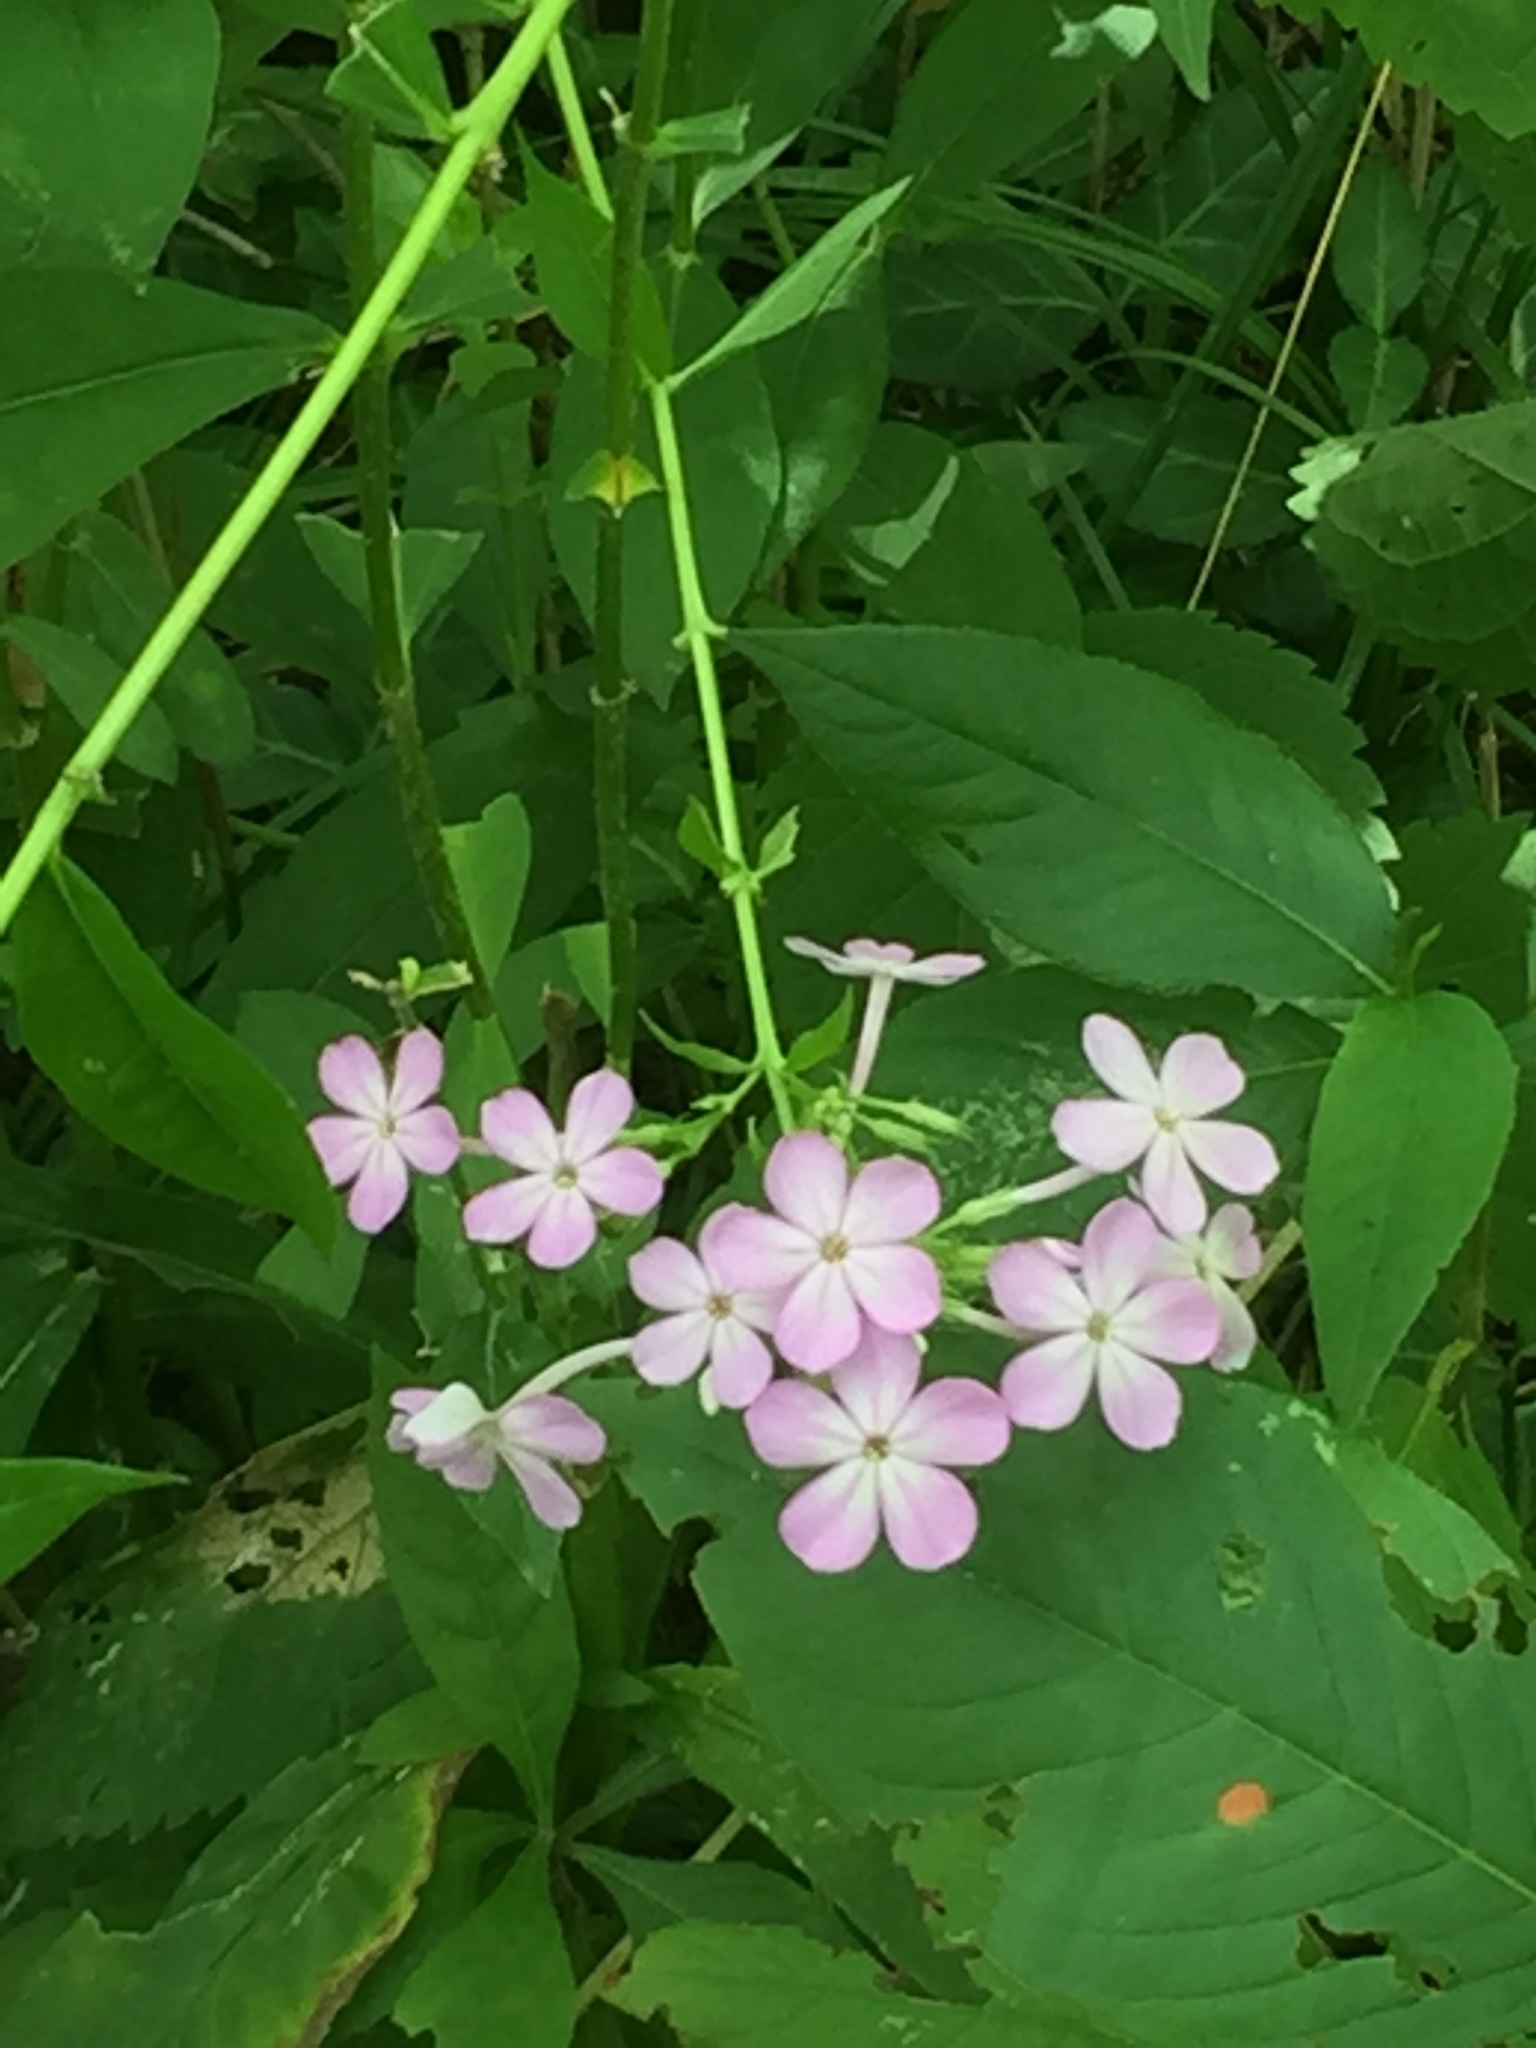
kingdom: Plantae
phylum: Tracheophyta
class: Magnoliopsida
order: Ericales
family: Polemoniaceae
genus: Phlox
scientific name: Phlox paniculata
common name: Fall phlox
